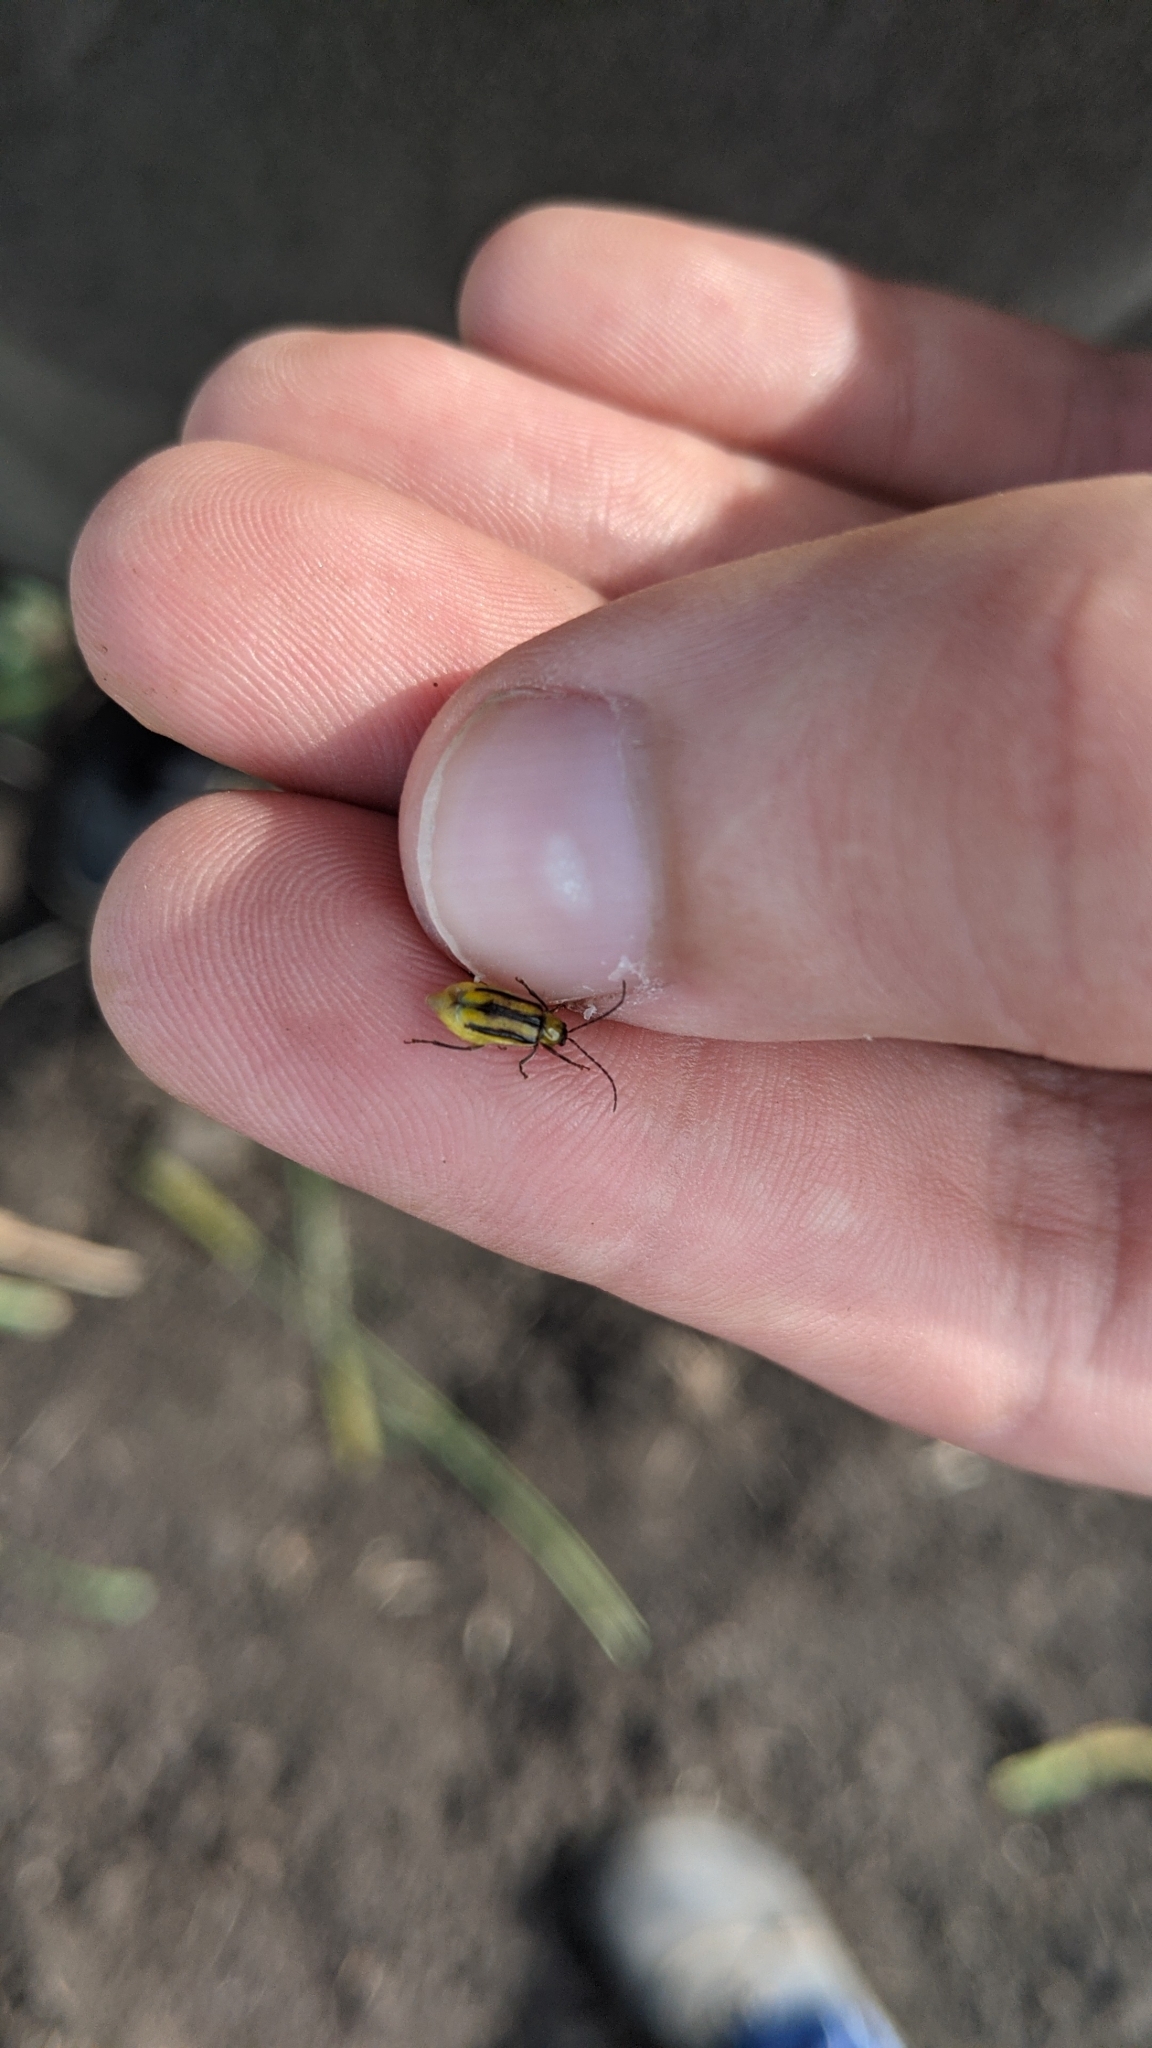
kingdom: Animalia
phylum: Arthropoda
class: Insecta
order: Coleoptera
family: Chrysomelidae
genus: Diabrotica
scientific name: Diabrotica virgifera
